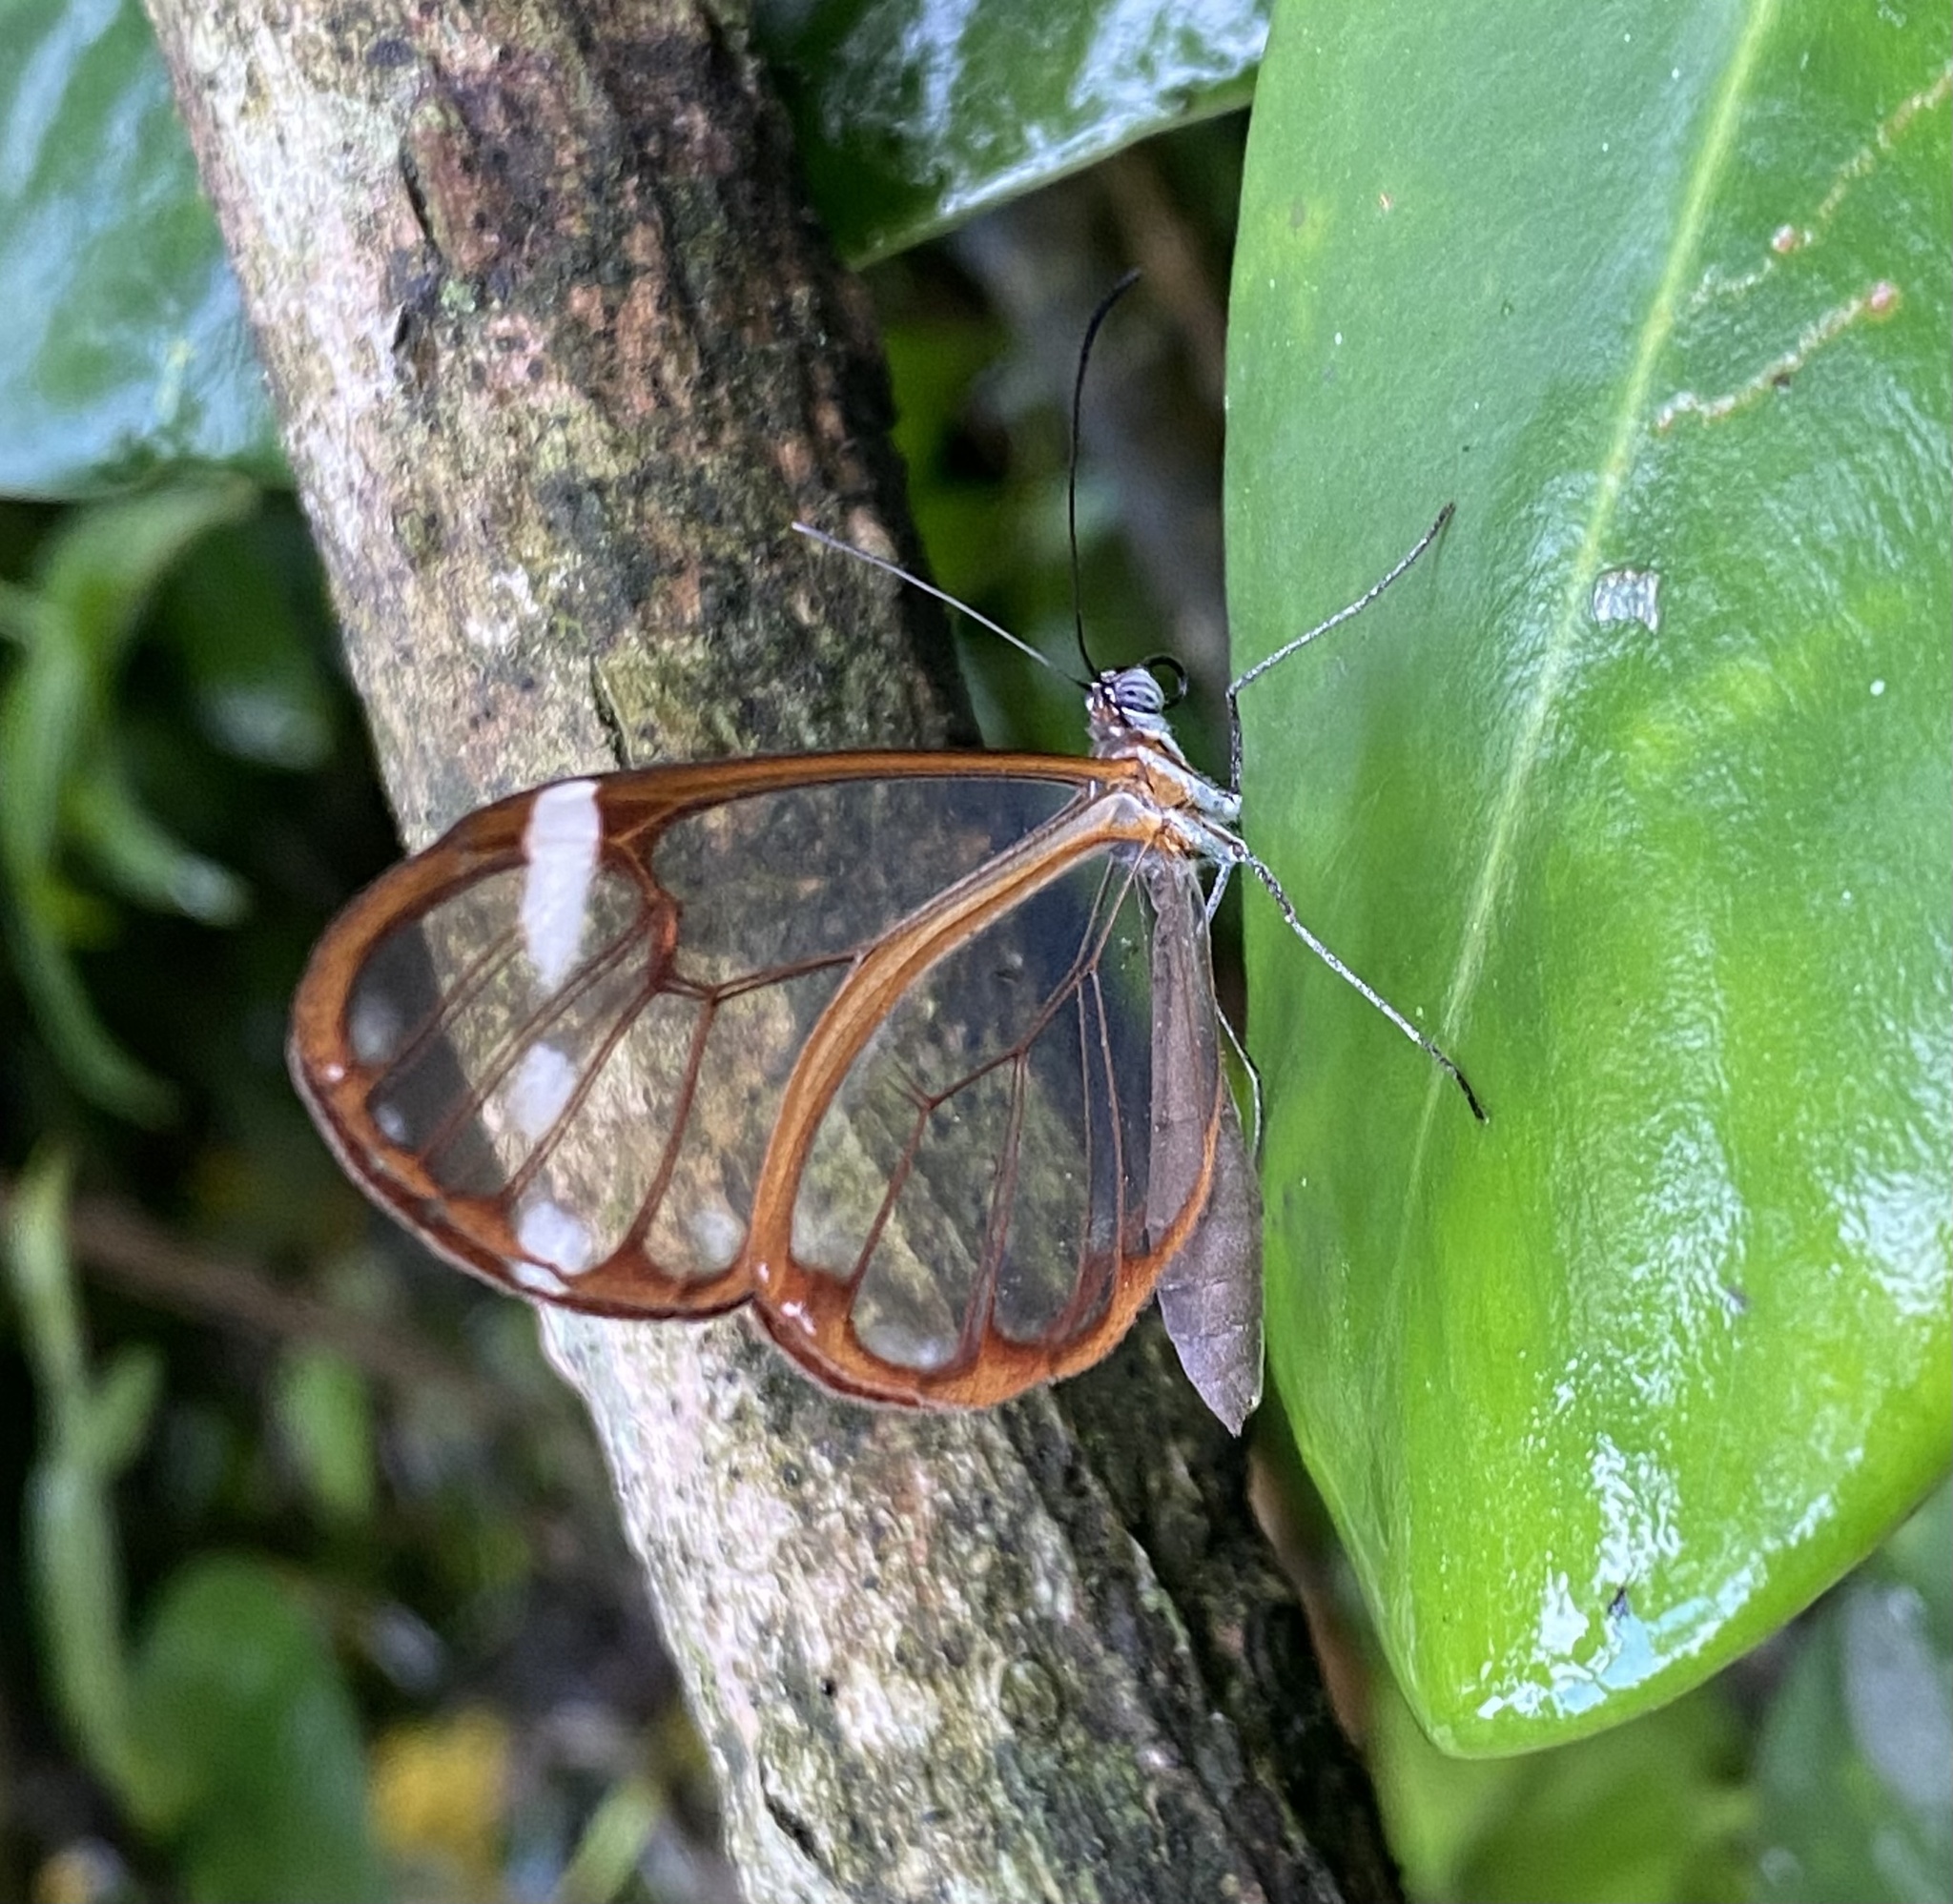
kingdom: Animalia
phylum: Arthropoda
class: Insecta
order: Lepidoptera
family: Nymphalidae
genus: Greta
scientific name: Greta annette
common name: White-spotted clearwing
